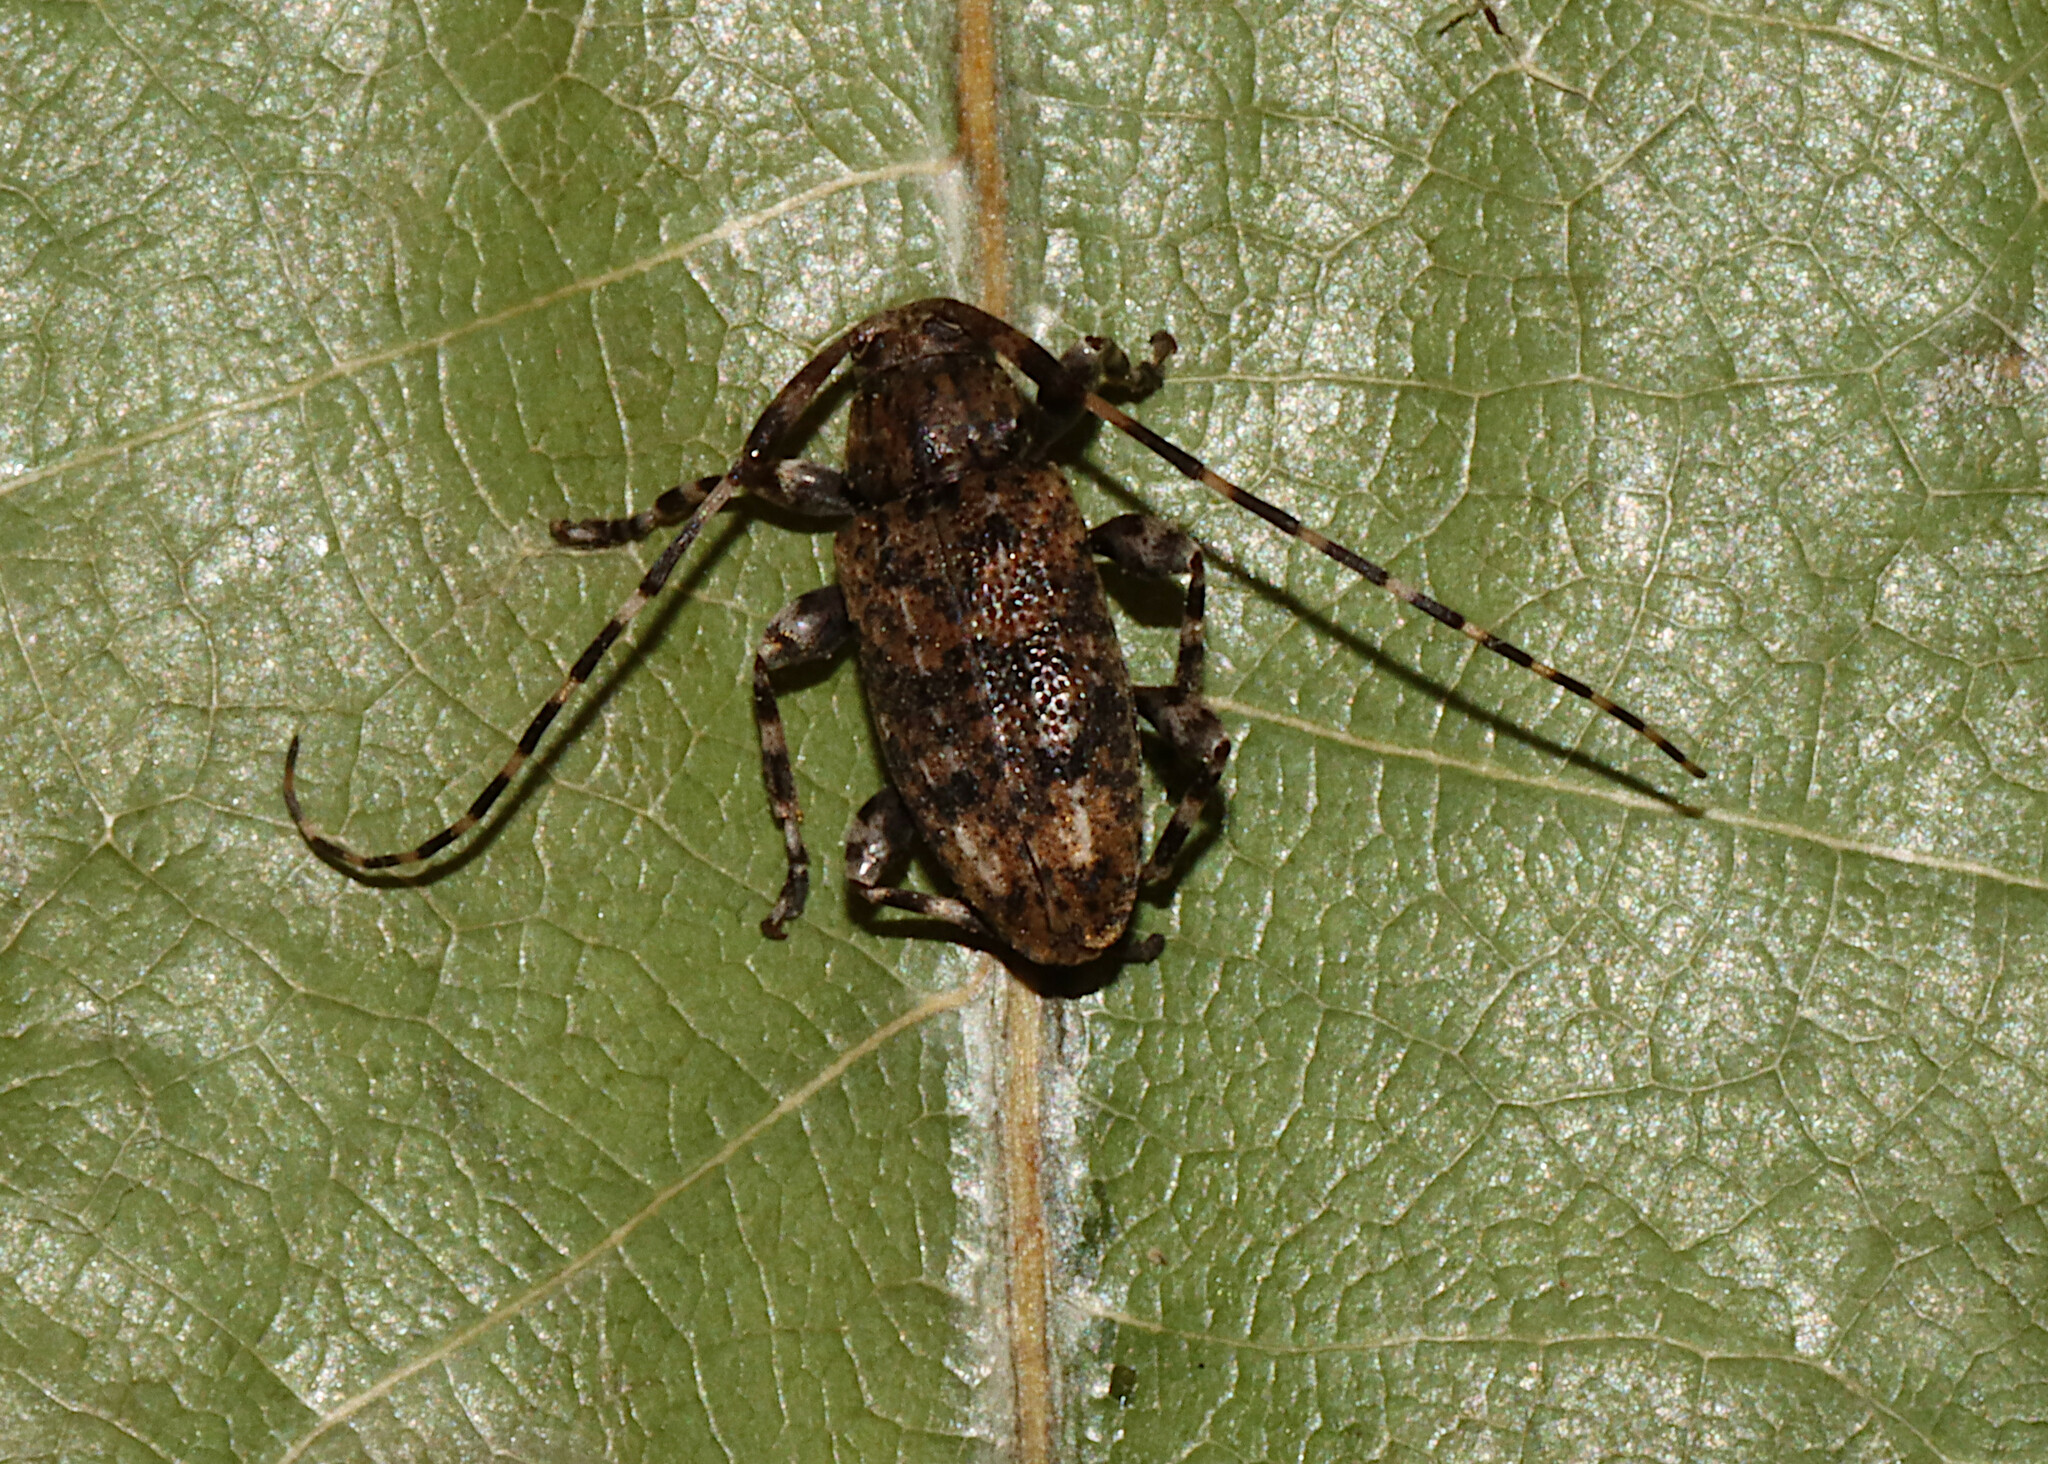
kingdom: Animalia
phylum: Arthropoda
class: Insecta
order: Coleoptera
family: Cerambycidae
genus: Astyleiopus
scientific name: Astyleiopus variegatus
